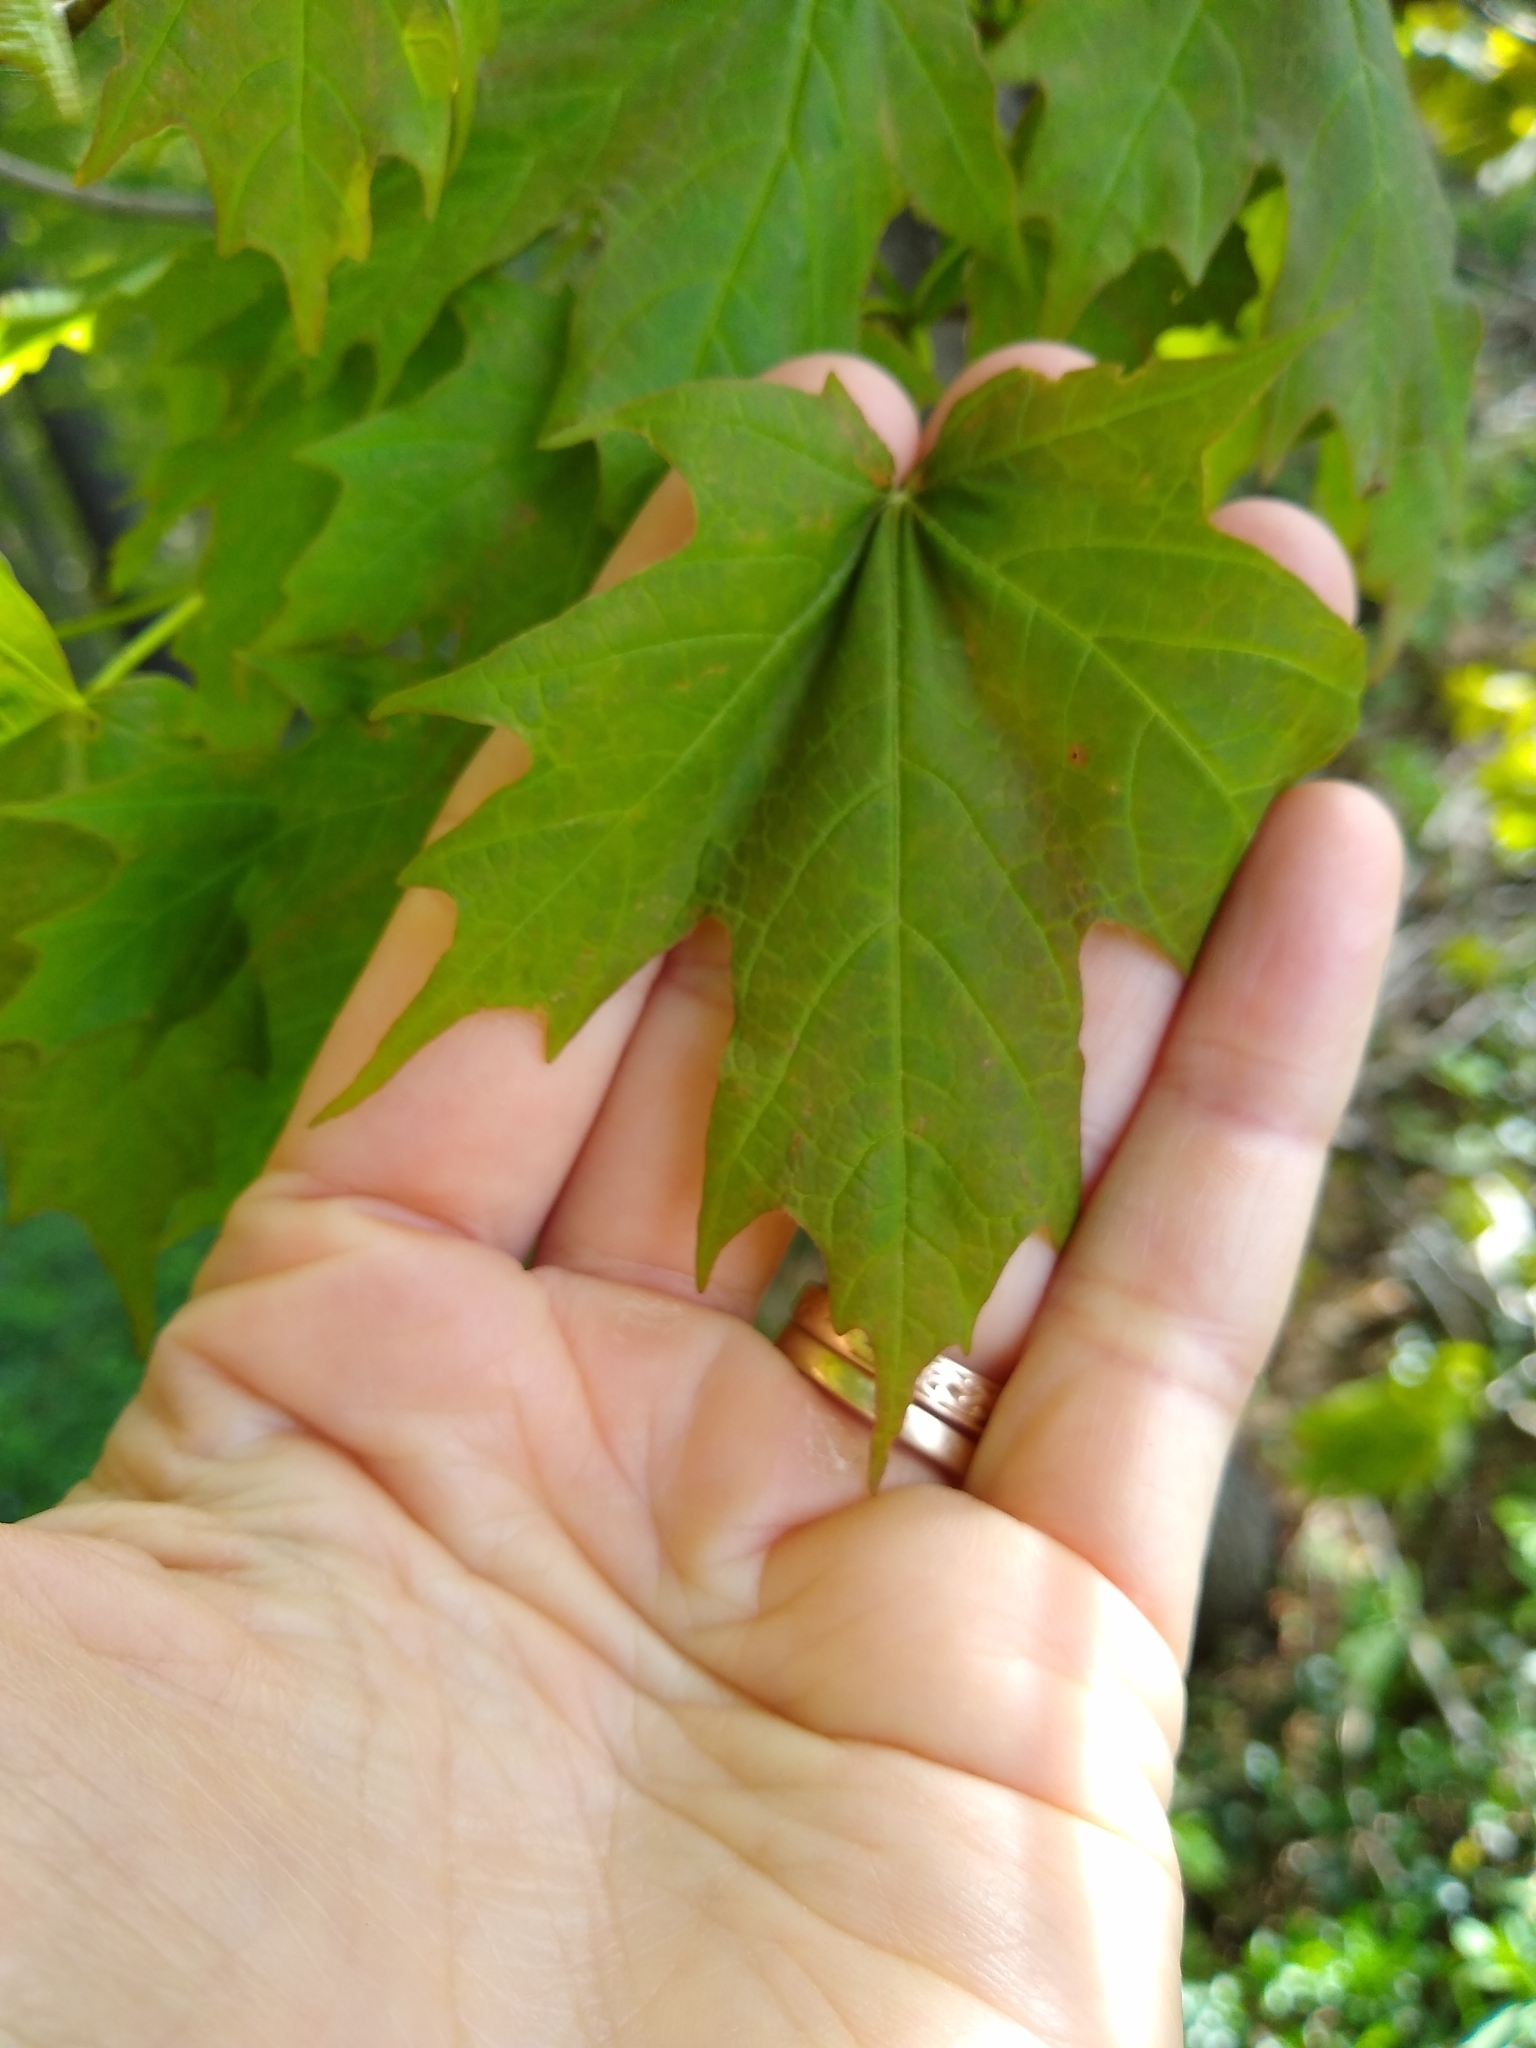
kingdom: Plantae
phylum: Tracheophyta
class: Magnoliopsida
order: Sapindales
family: Sapindaceae
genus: Acer
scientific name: Acer saccharum
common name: Sugar maple
